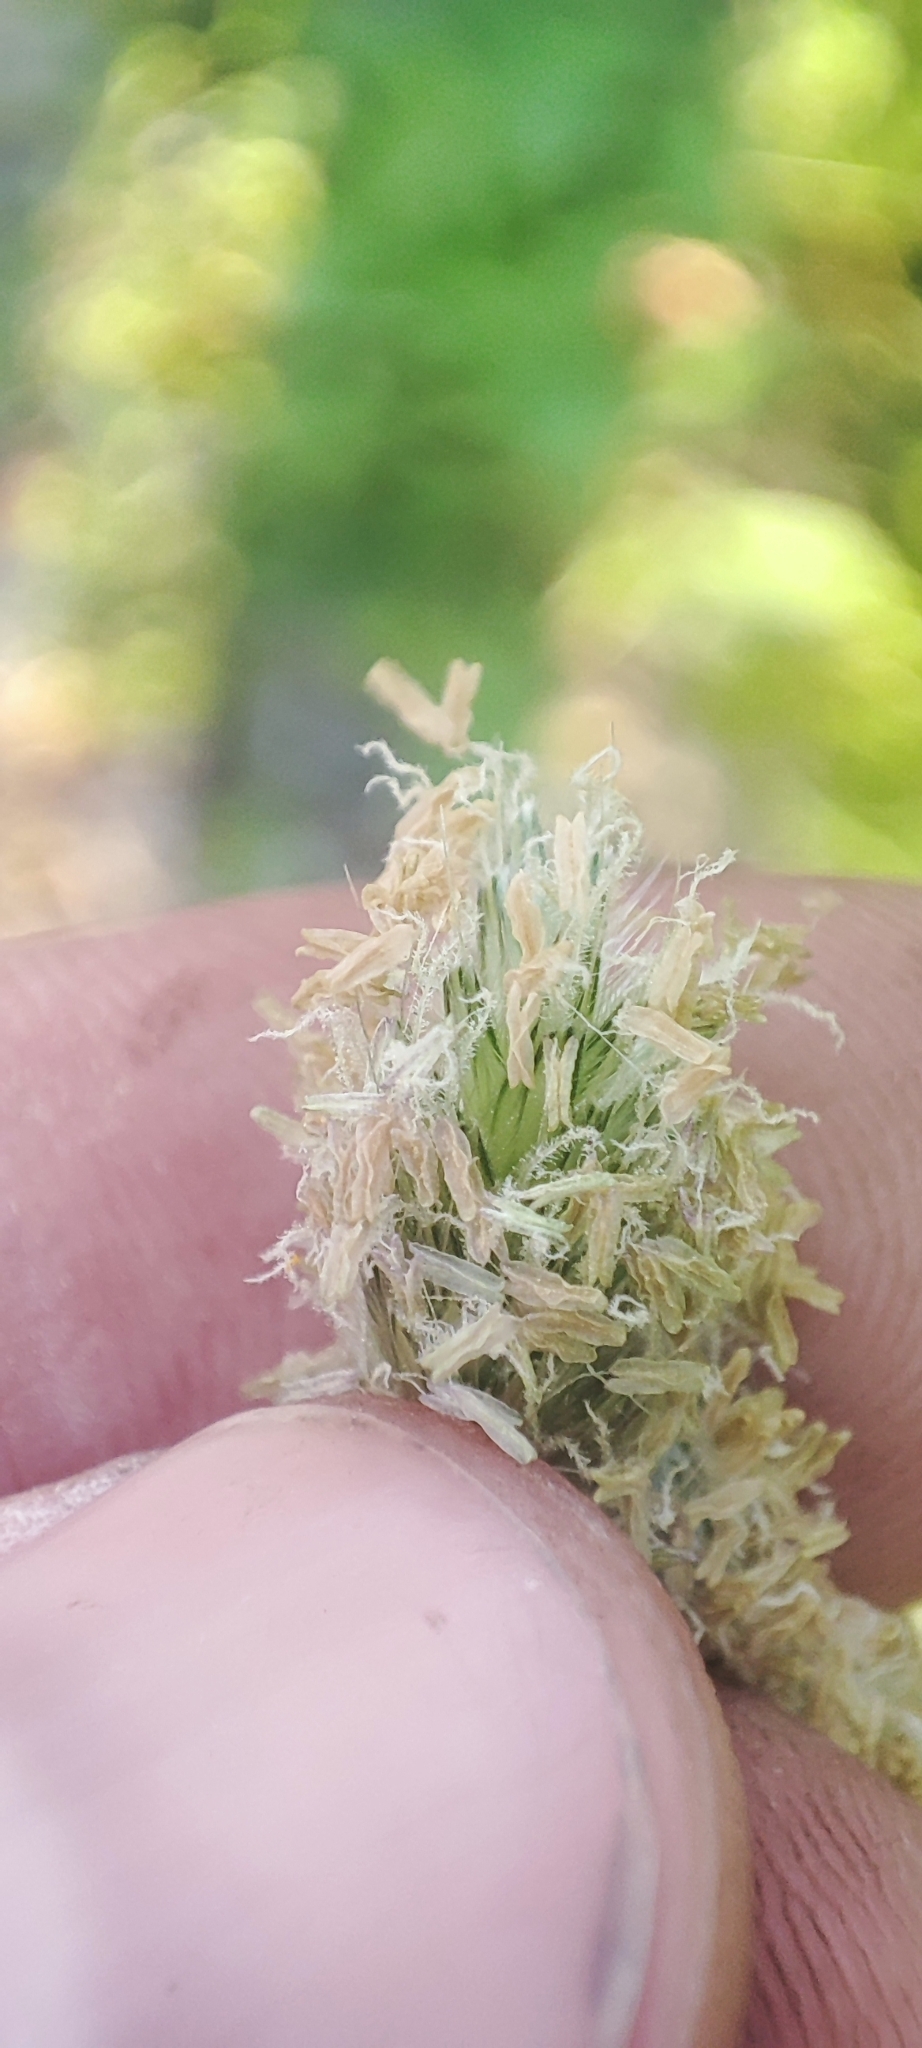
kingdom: Plantae
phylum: Tracheophyta
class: Liliopsida
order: Poales
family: Poaceae
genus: Alopecurus
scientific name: Alopecurus pratensis
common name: Meadow foxtail
